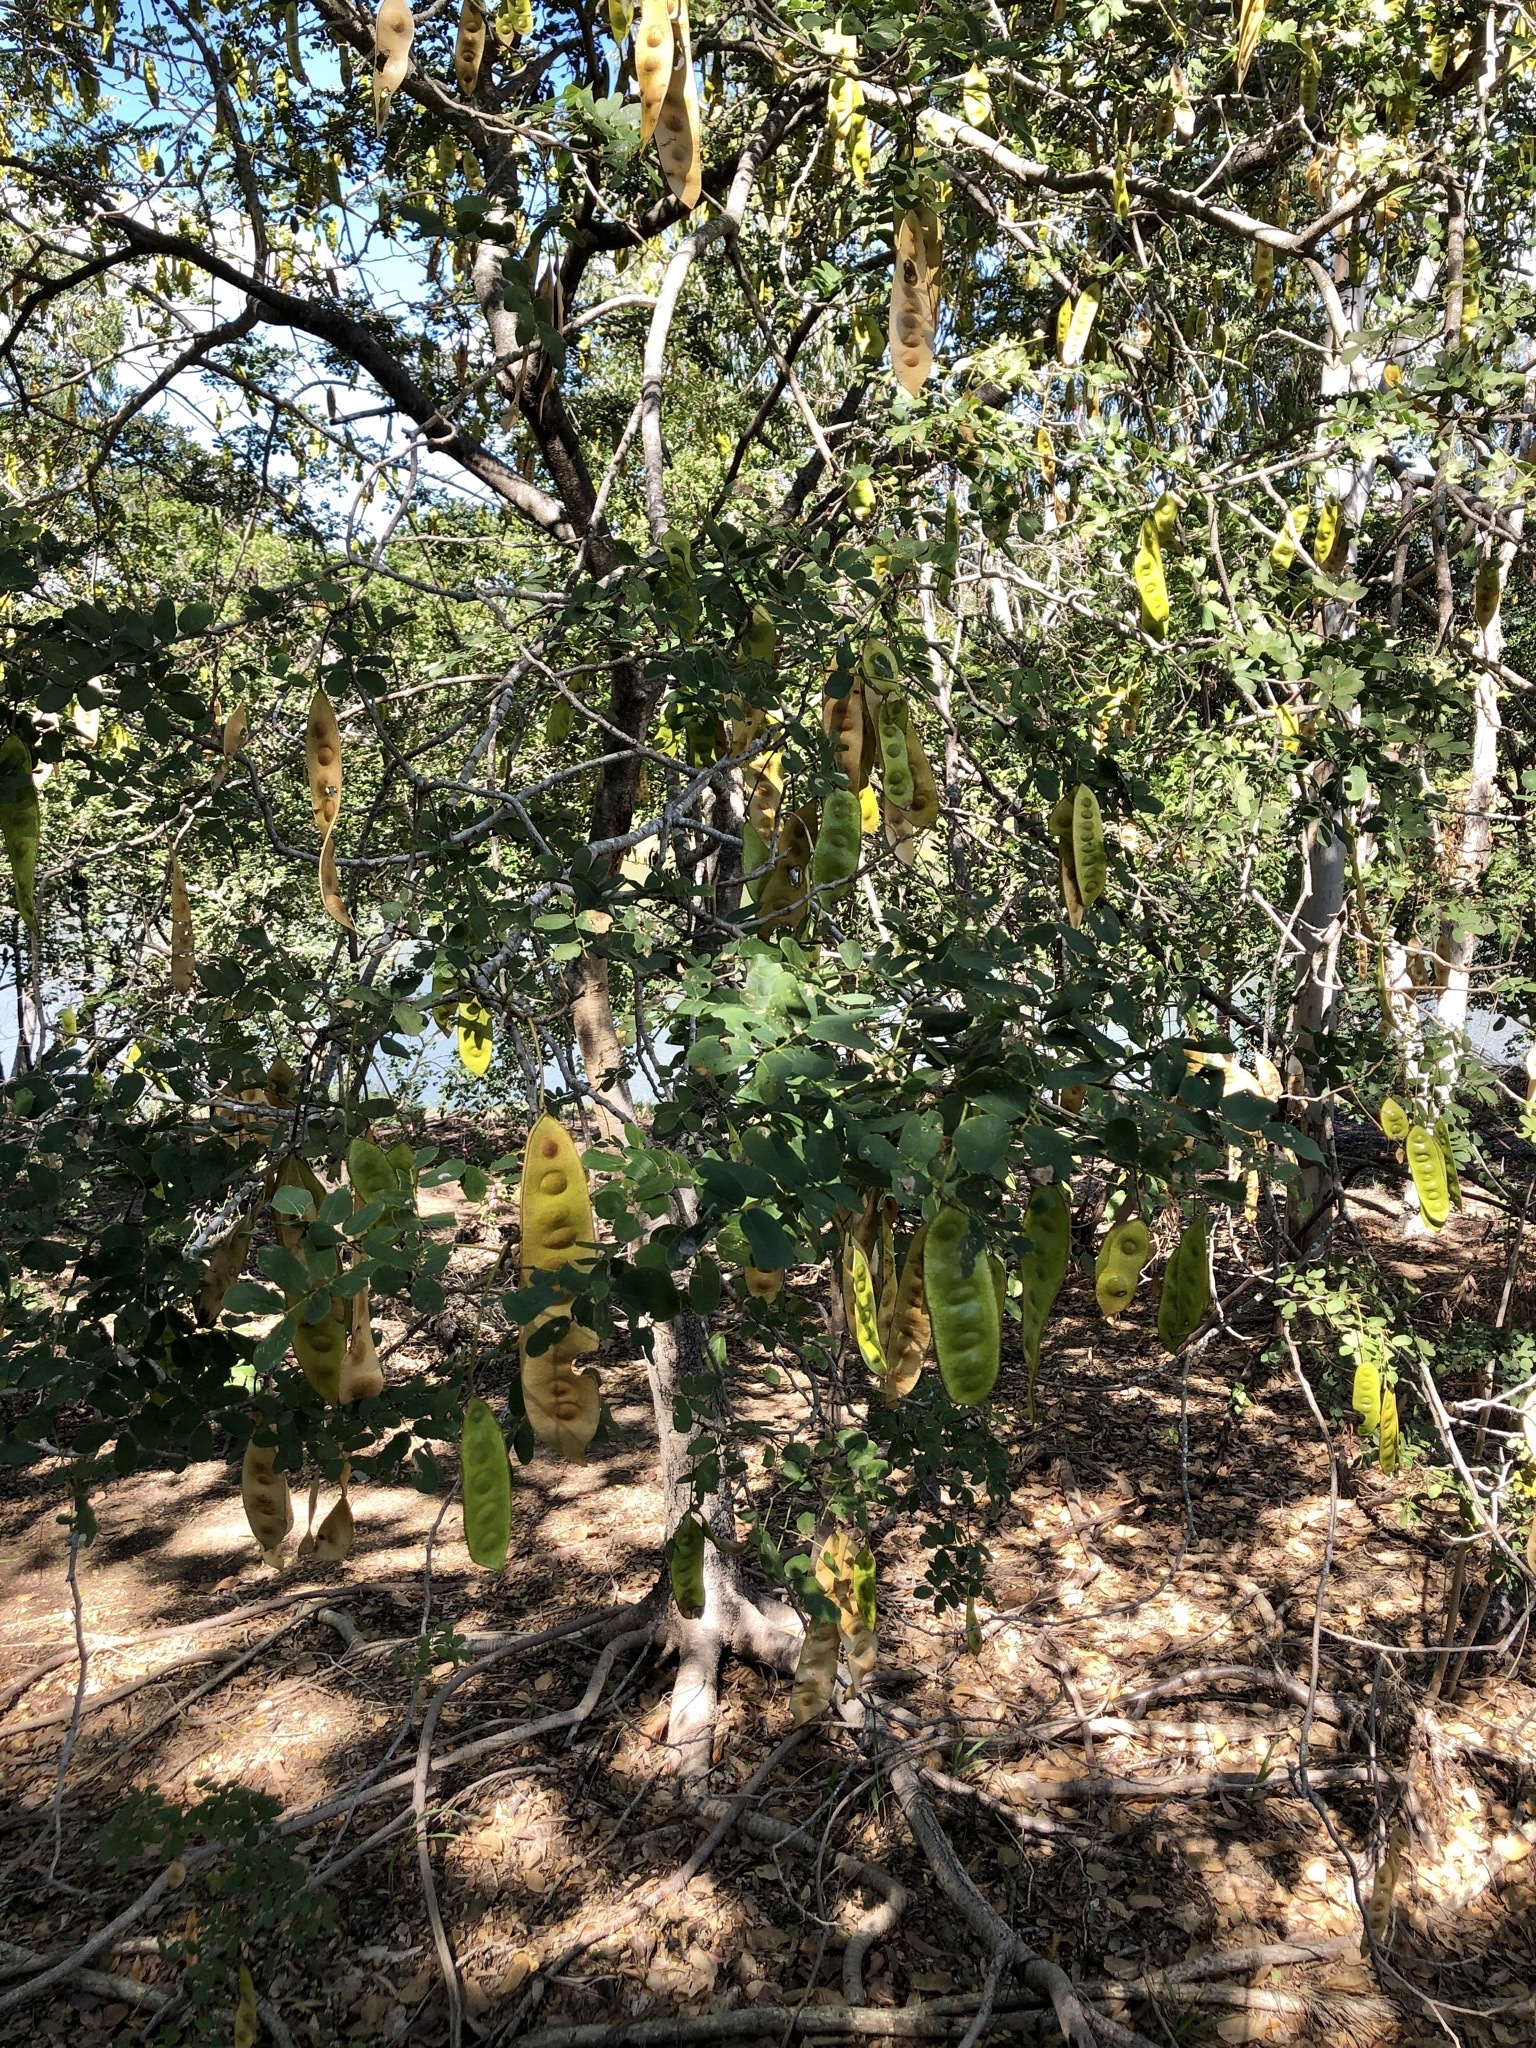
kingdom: Plantae
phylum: Tracheophyta
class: Magnoliopsida
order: Fabales
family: Fabaceae
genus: Albizia
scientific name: Albizia lebbeck
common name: Woman's tongue
